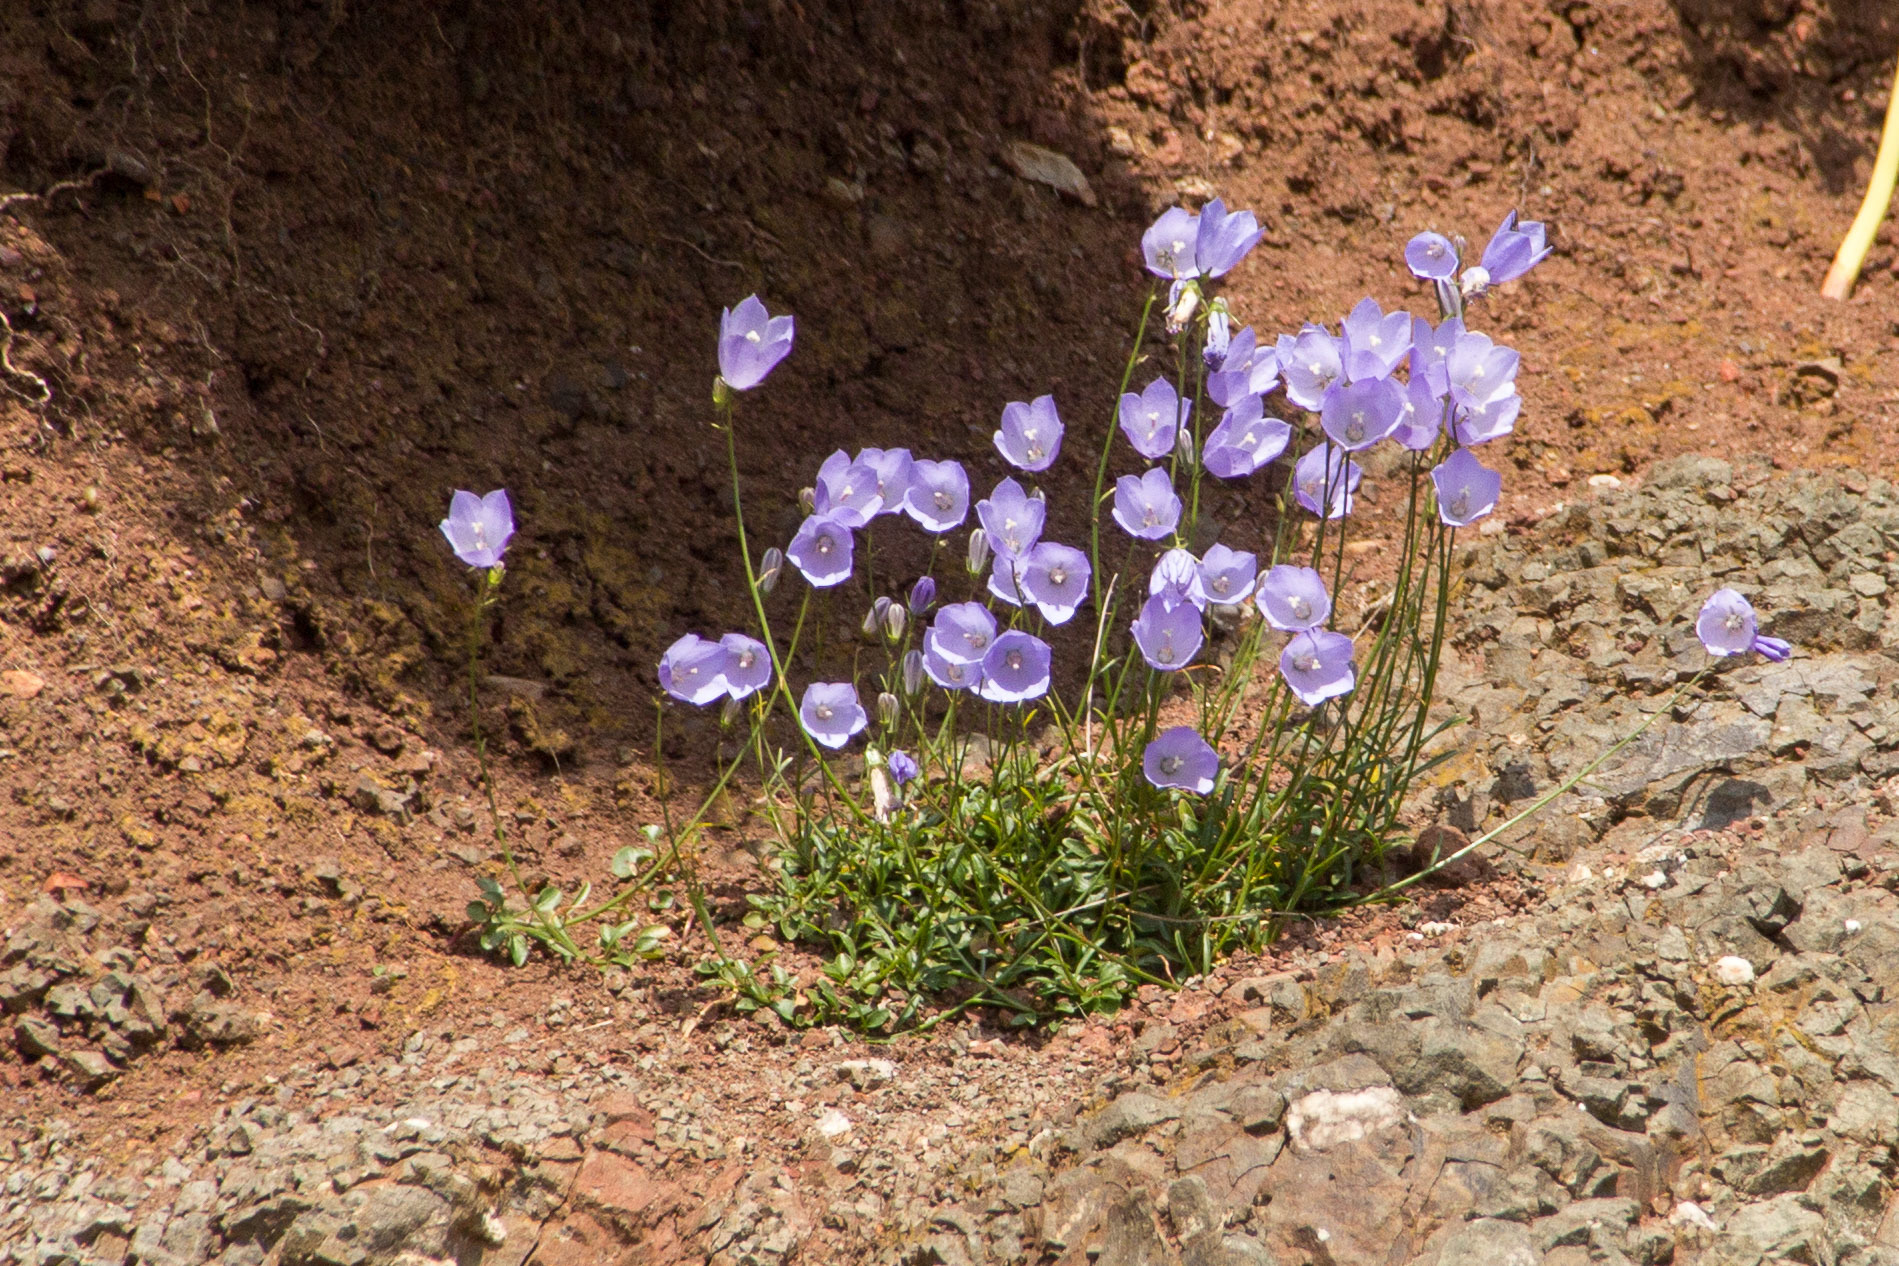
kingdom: Plantae
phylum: Tracheophyta
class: Magnoliopsida
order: Asterales
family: Campanulaceae
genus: Campanula
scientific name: Campanula rotundifolia
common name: Harebell
